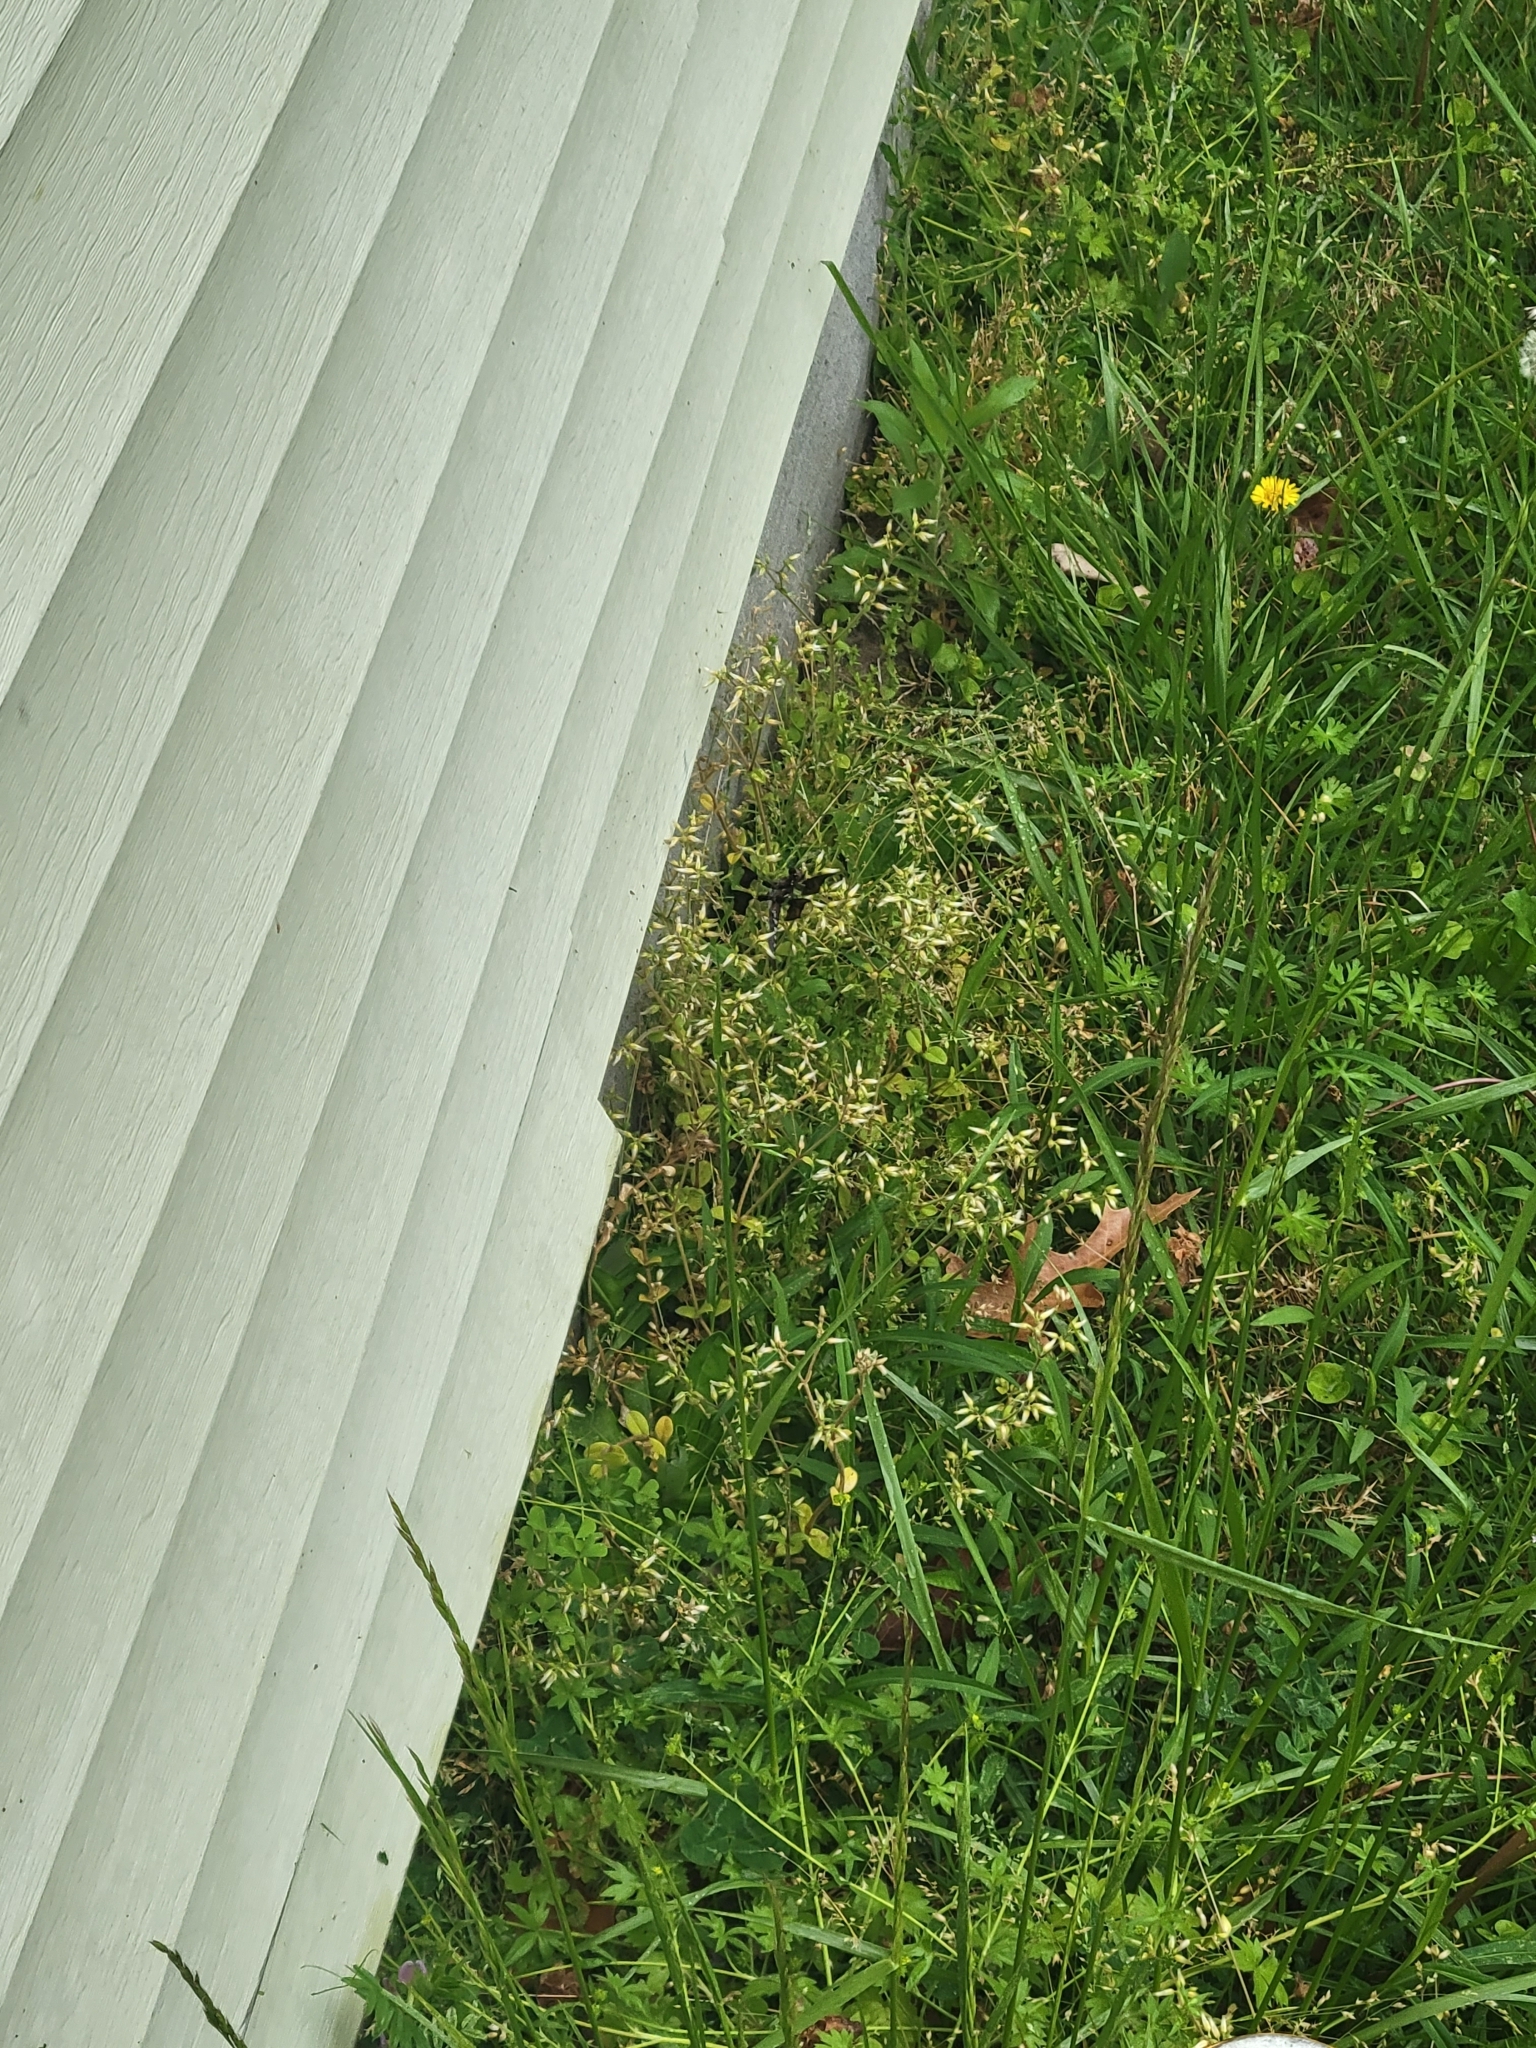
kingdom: Animalia
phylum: Arthropoda
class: Insecta
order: Odonata
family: Libellulidae
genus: Plathemis
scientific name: Plathemis lydia
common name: Common whitetail
